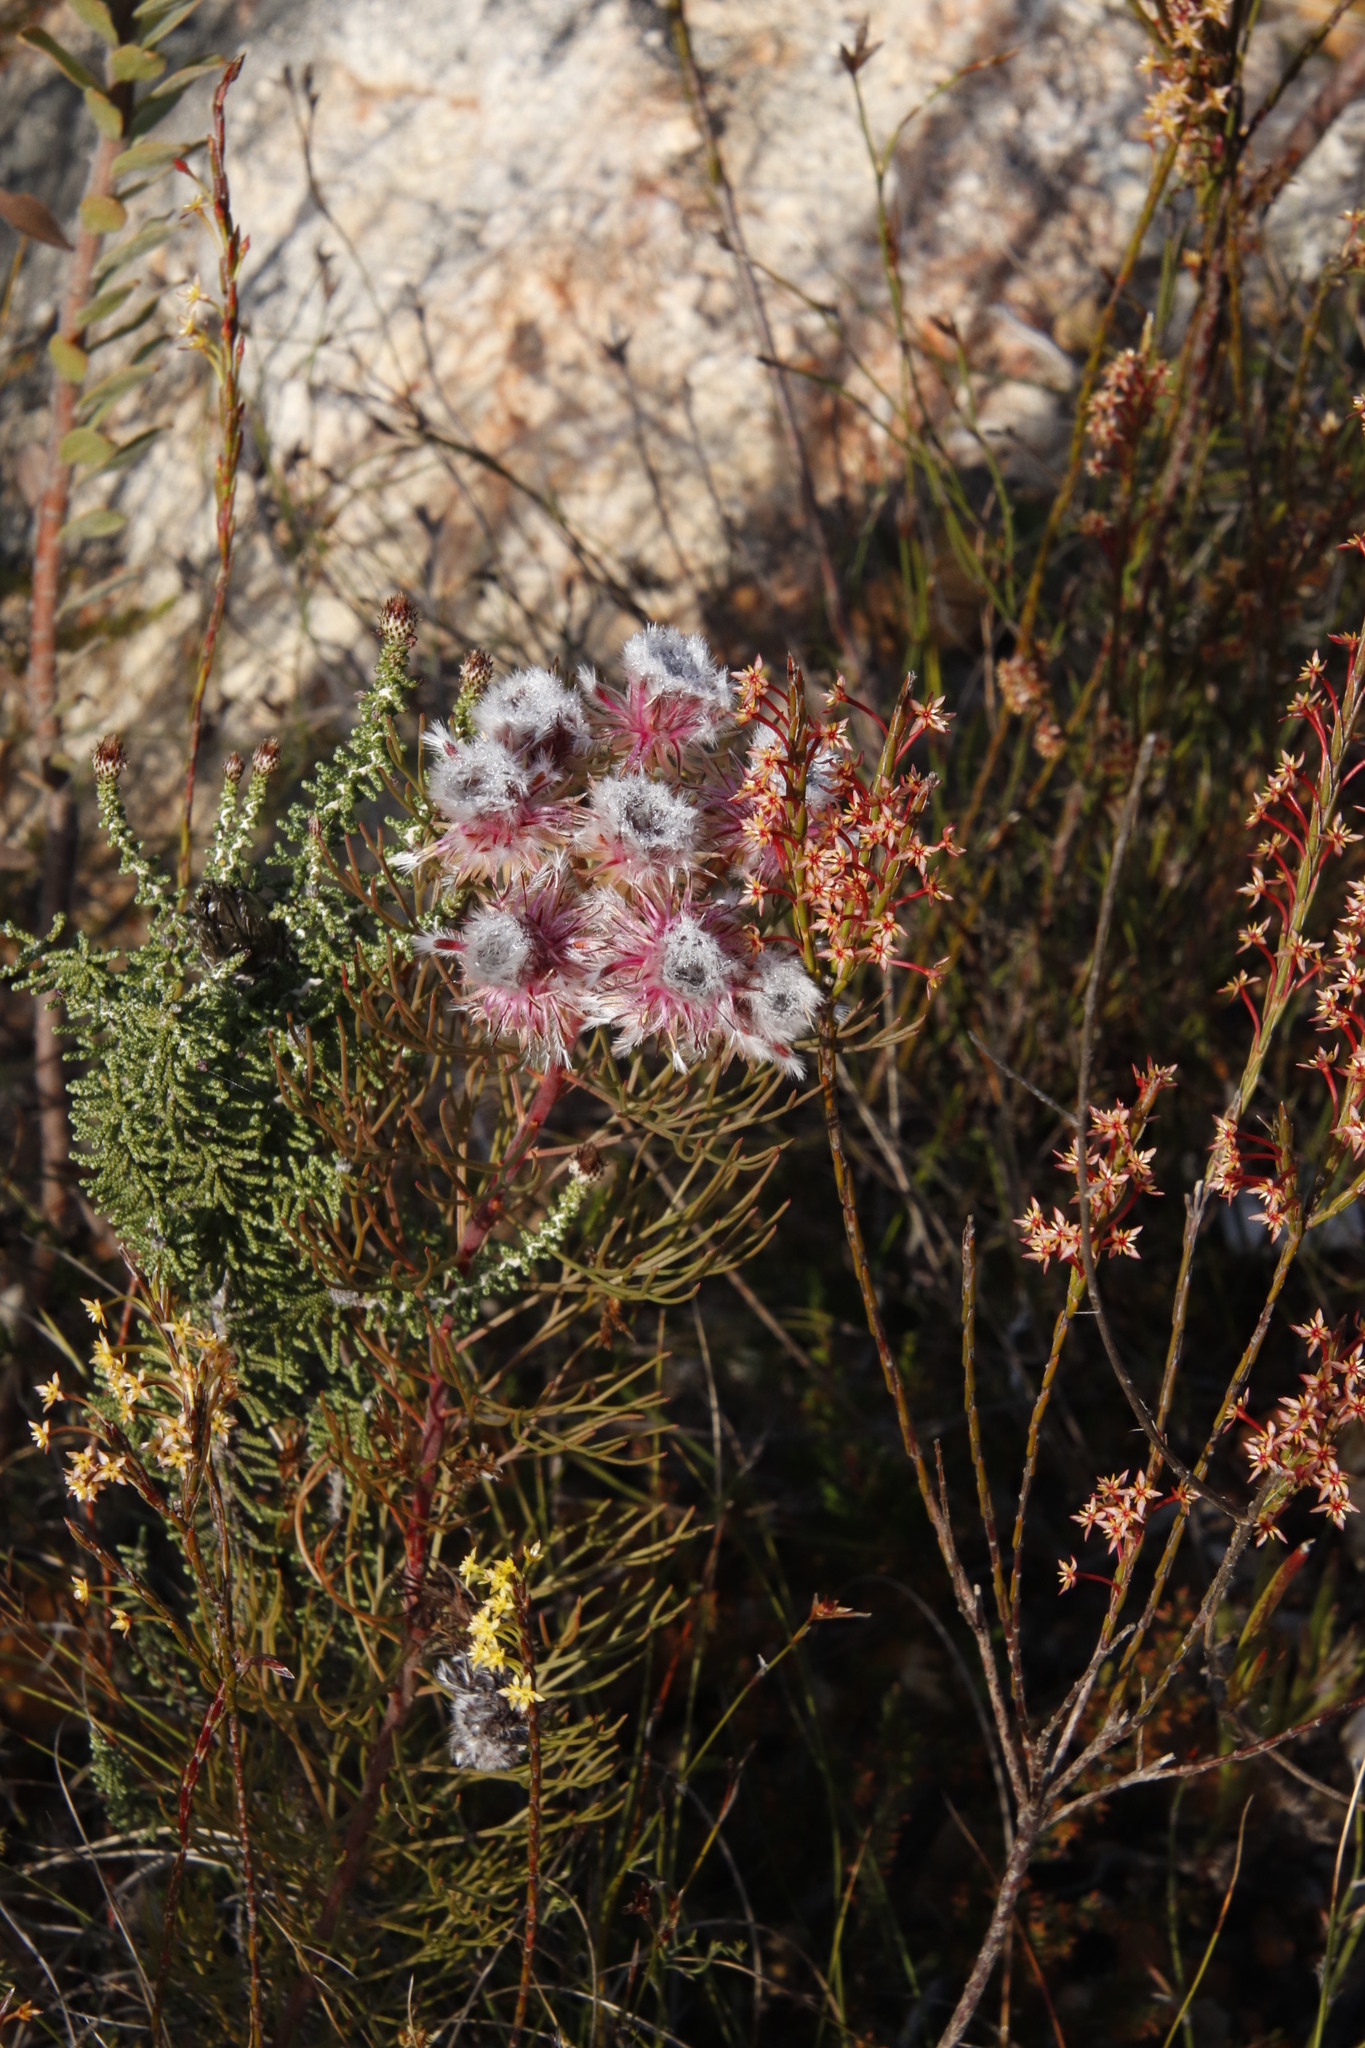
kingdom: Plantae
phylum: Tracheophyta
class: Magnoliopsida
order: Proteales
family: Proteaceae
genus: Serruria
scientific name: Serruria phylicoides
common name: Bearded spiderhead
